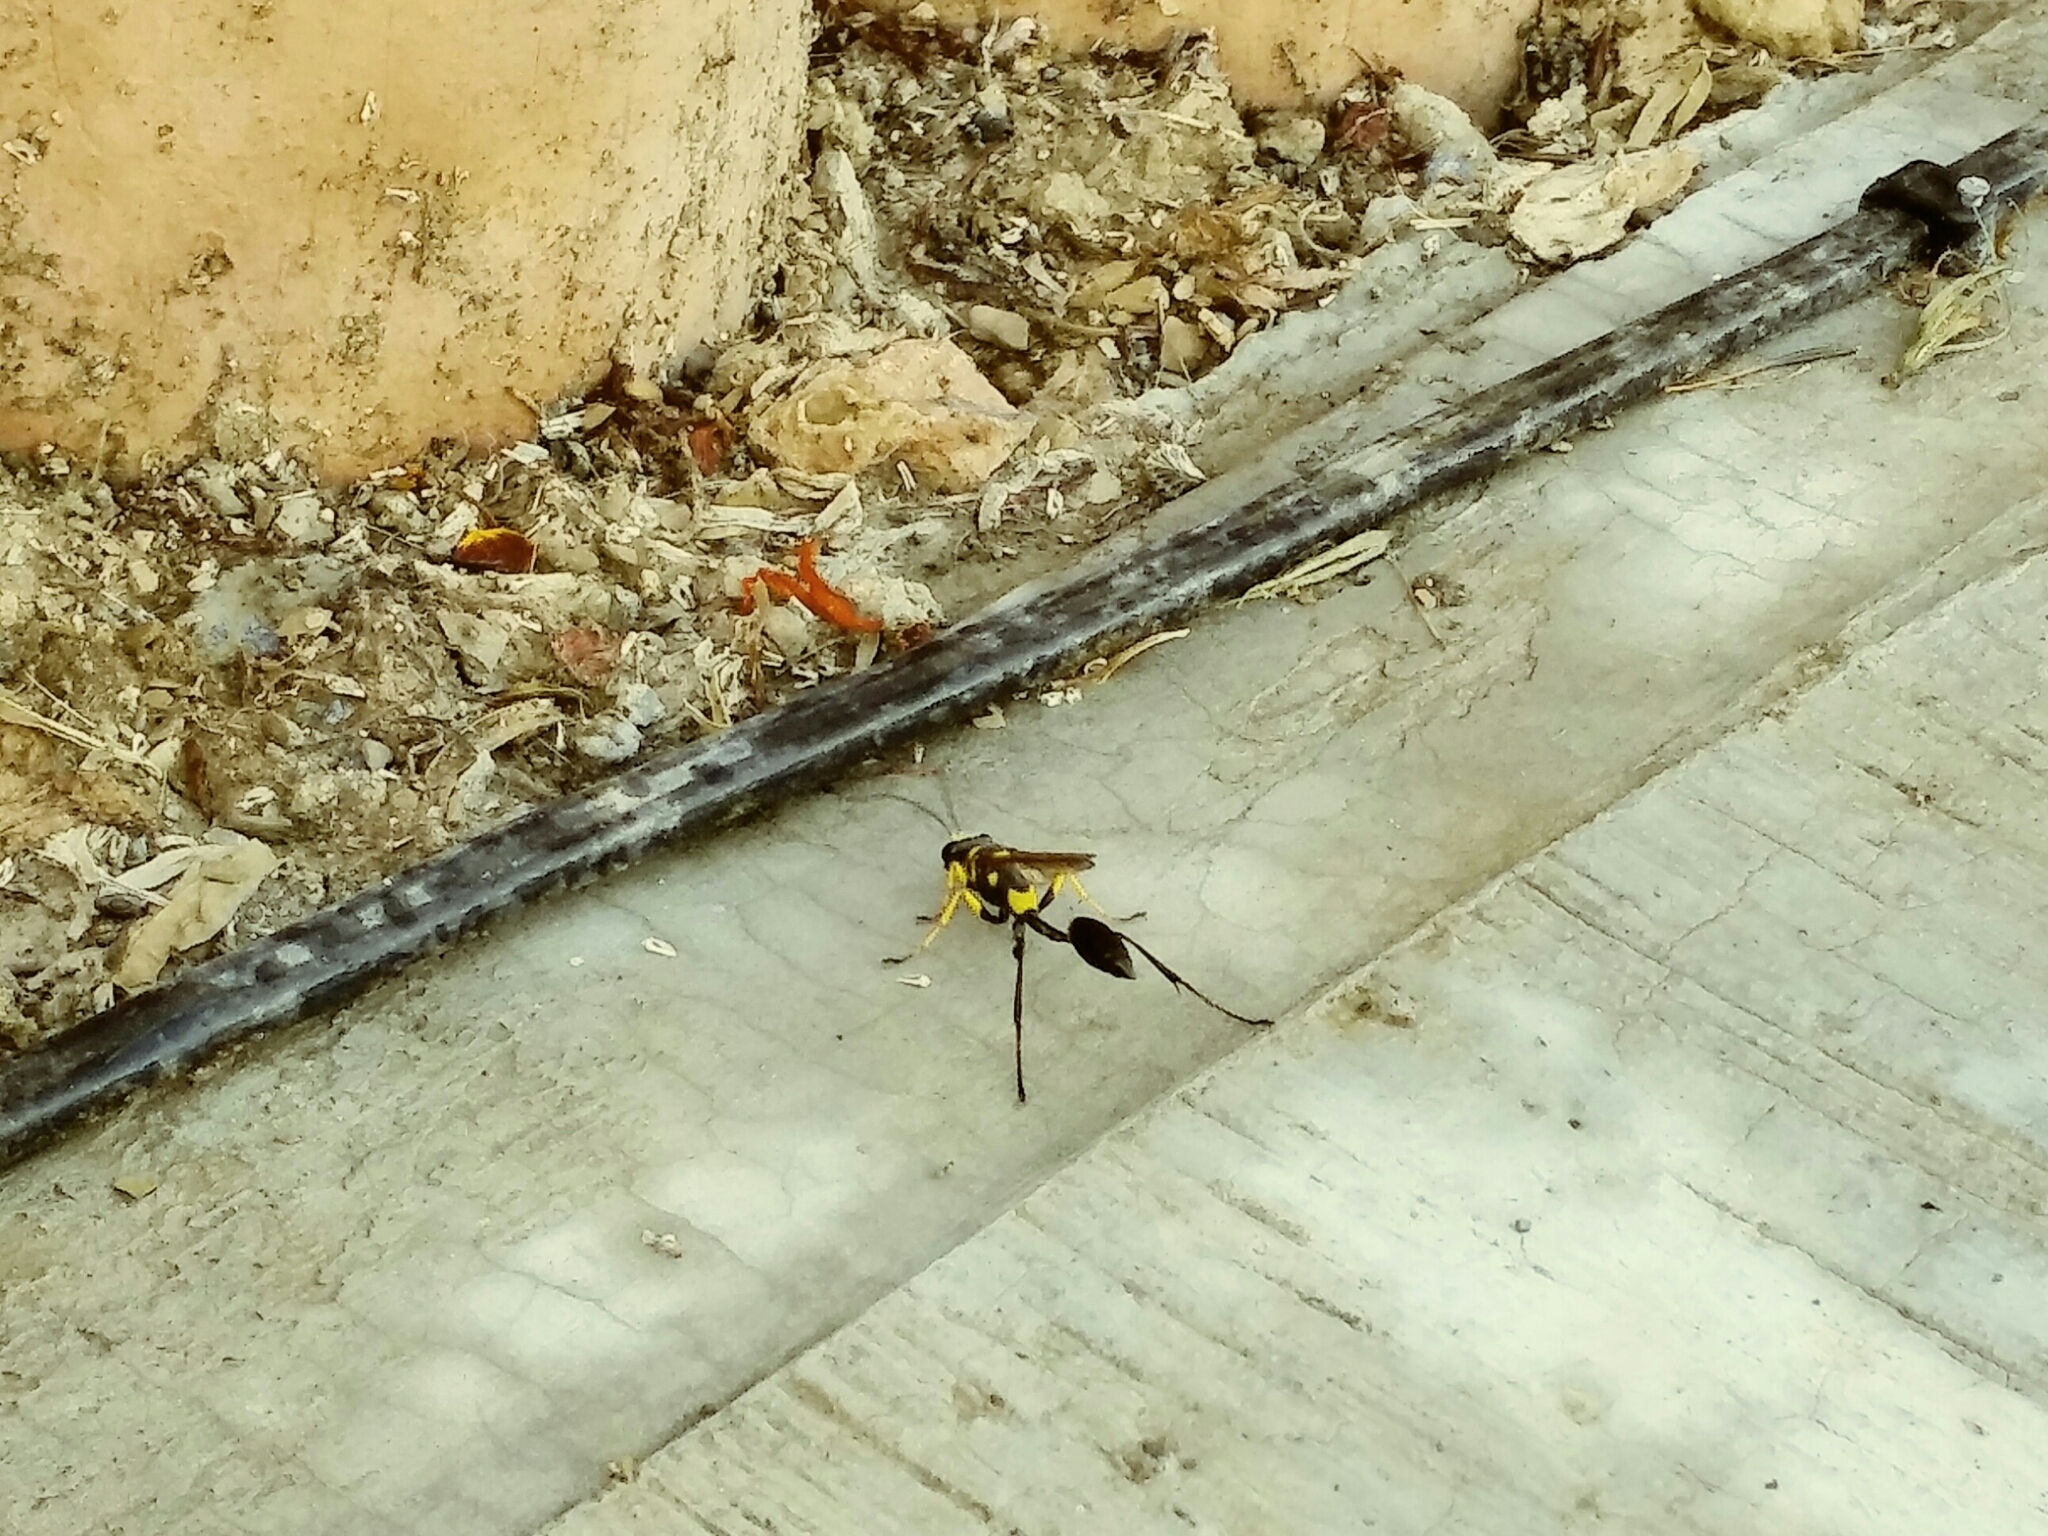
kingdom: Animalia
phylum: Arthropoda
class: Insecta
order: Hymenoptera
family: Sphecidae
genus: Sceliphron
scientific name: Sceliphron assimile
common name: Clayman's mud dauber
